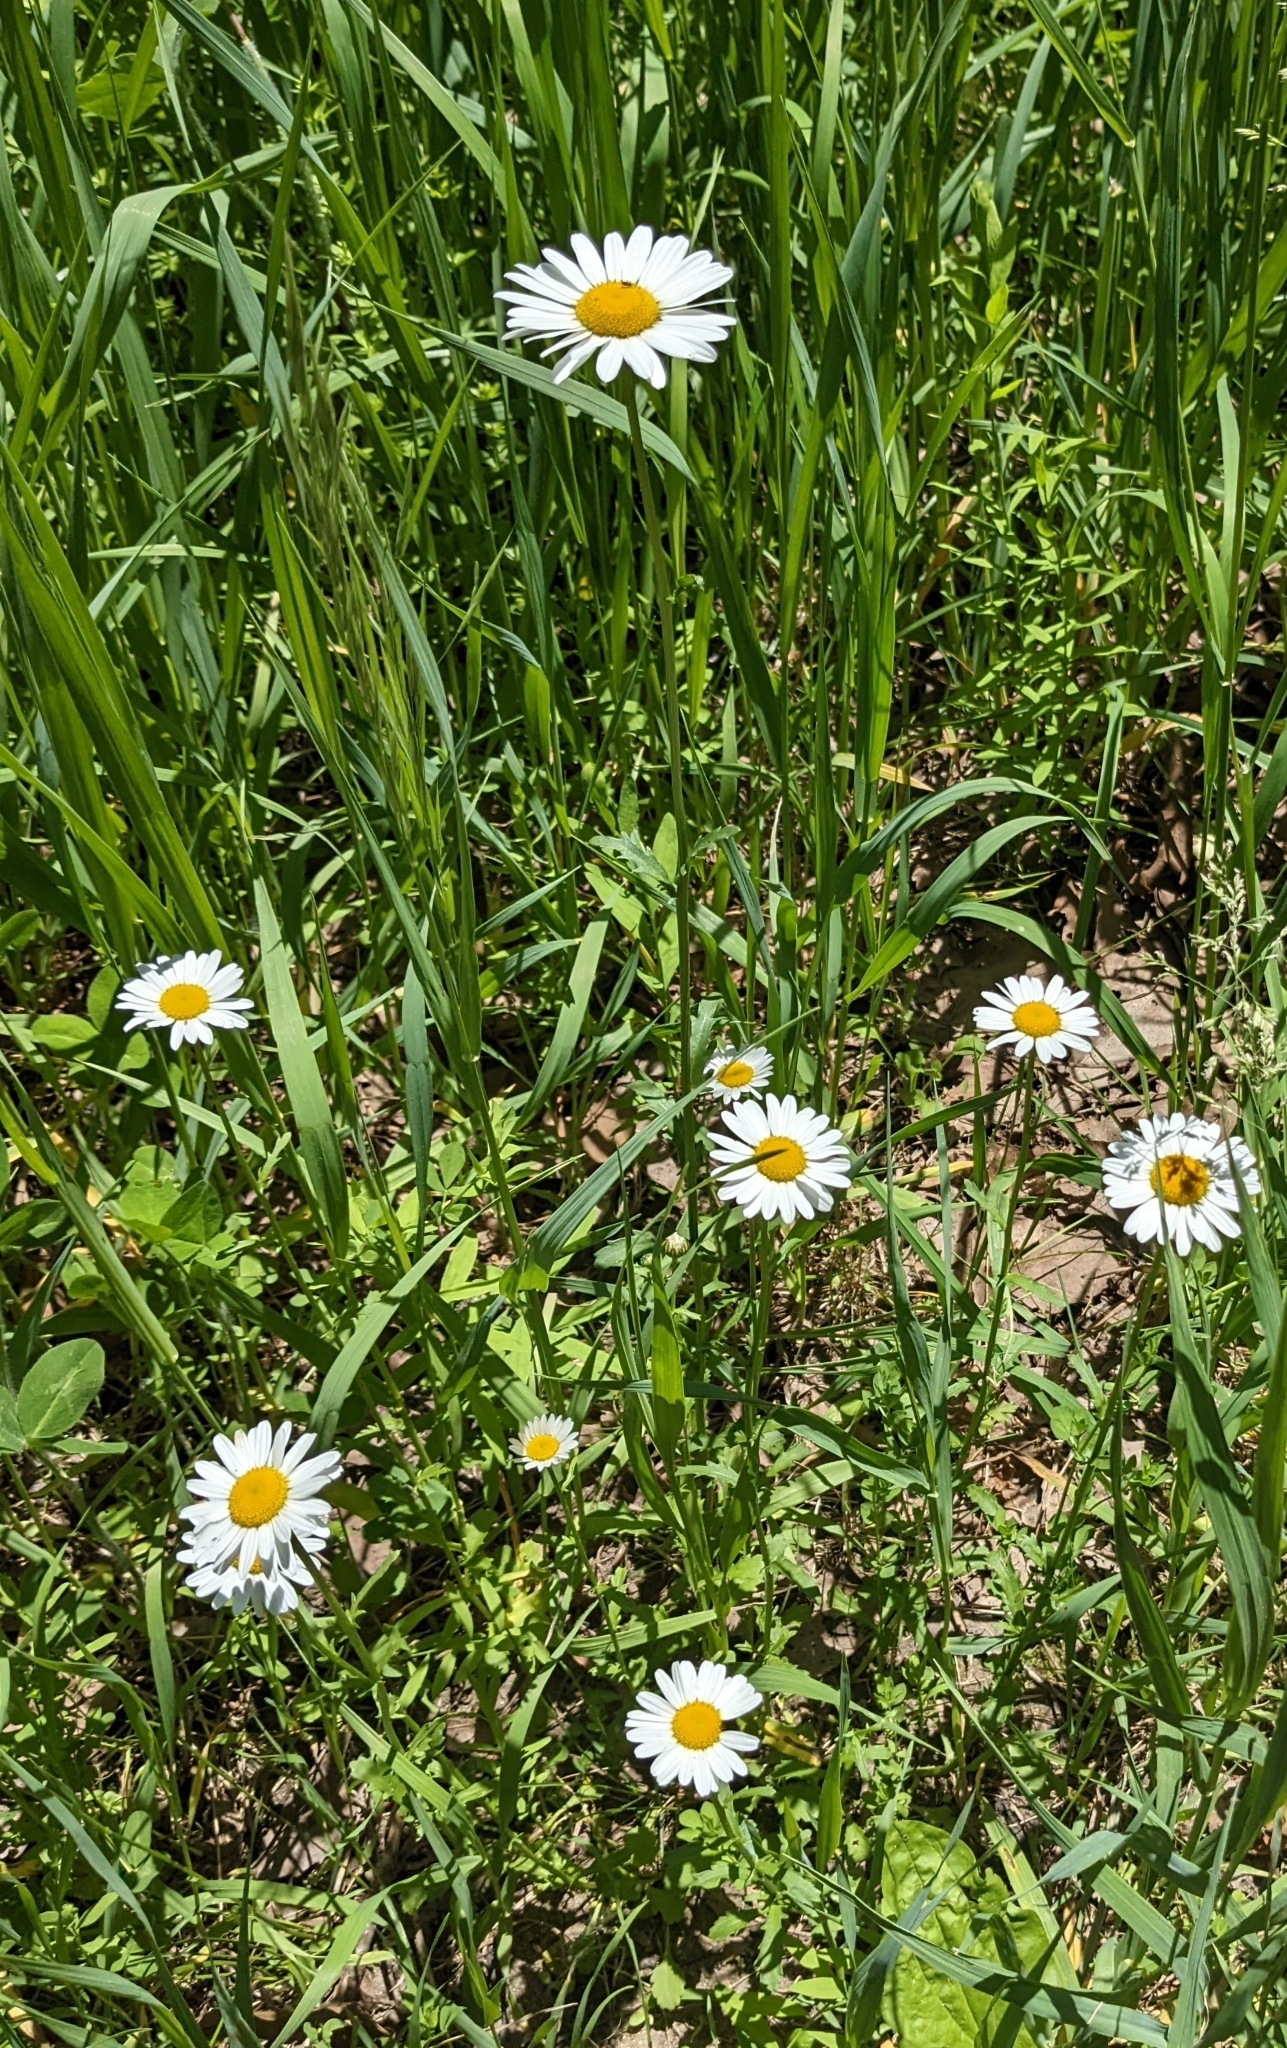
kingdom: Plantae
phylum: Tracheophyta
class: Magnoliopsida
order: Asterales
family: Asteraceae
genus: Leucanthemum
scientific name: Leucanthemum vulgare
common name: Oxeye daisy
